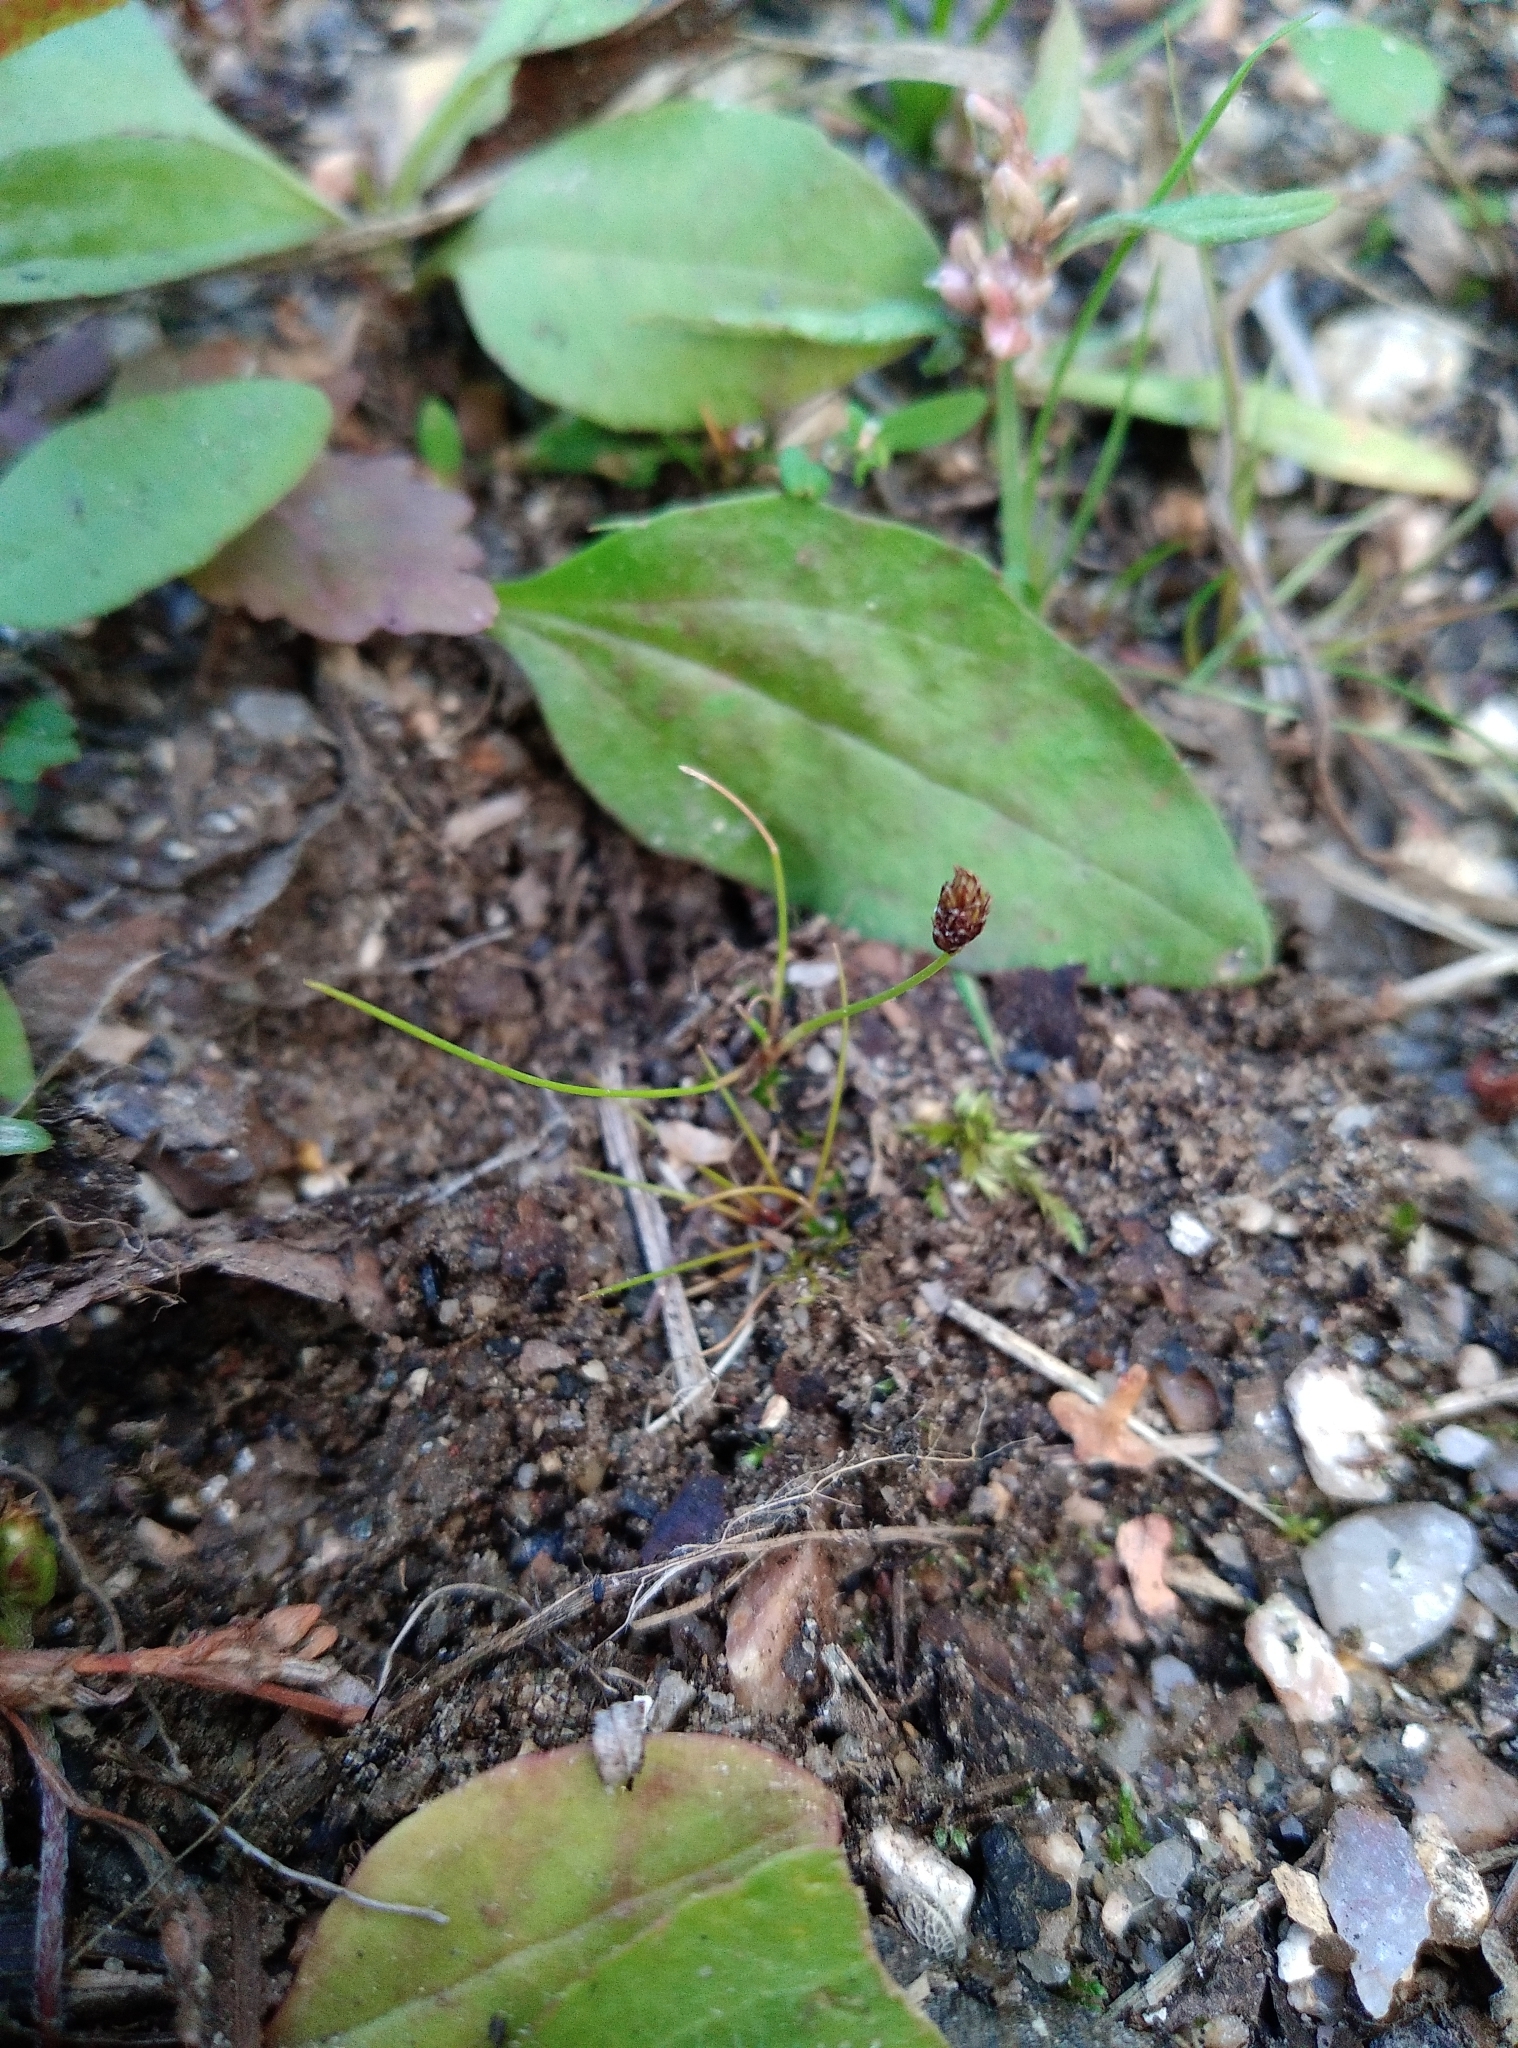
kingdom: Plantae
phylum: Tracheophyta
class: Liliopsida
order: Poales
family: Cyperaceae
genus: Eleocharis
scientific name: Eleocharis ovata
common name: Oval spike-rush
